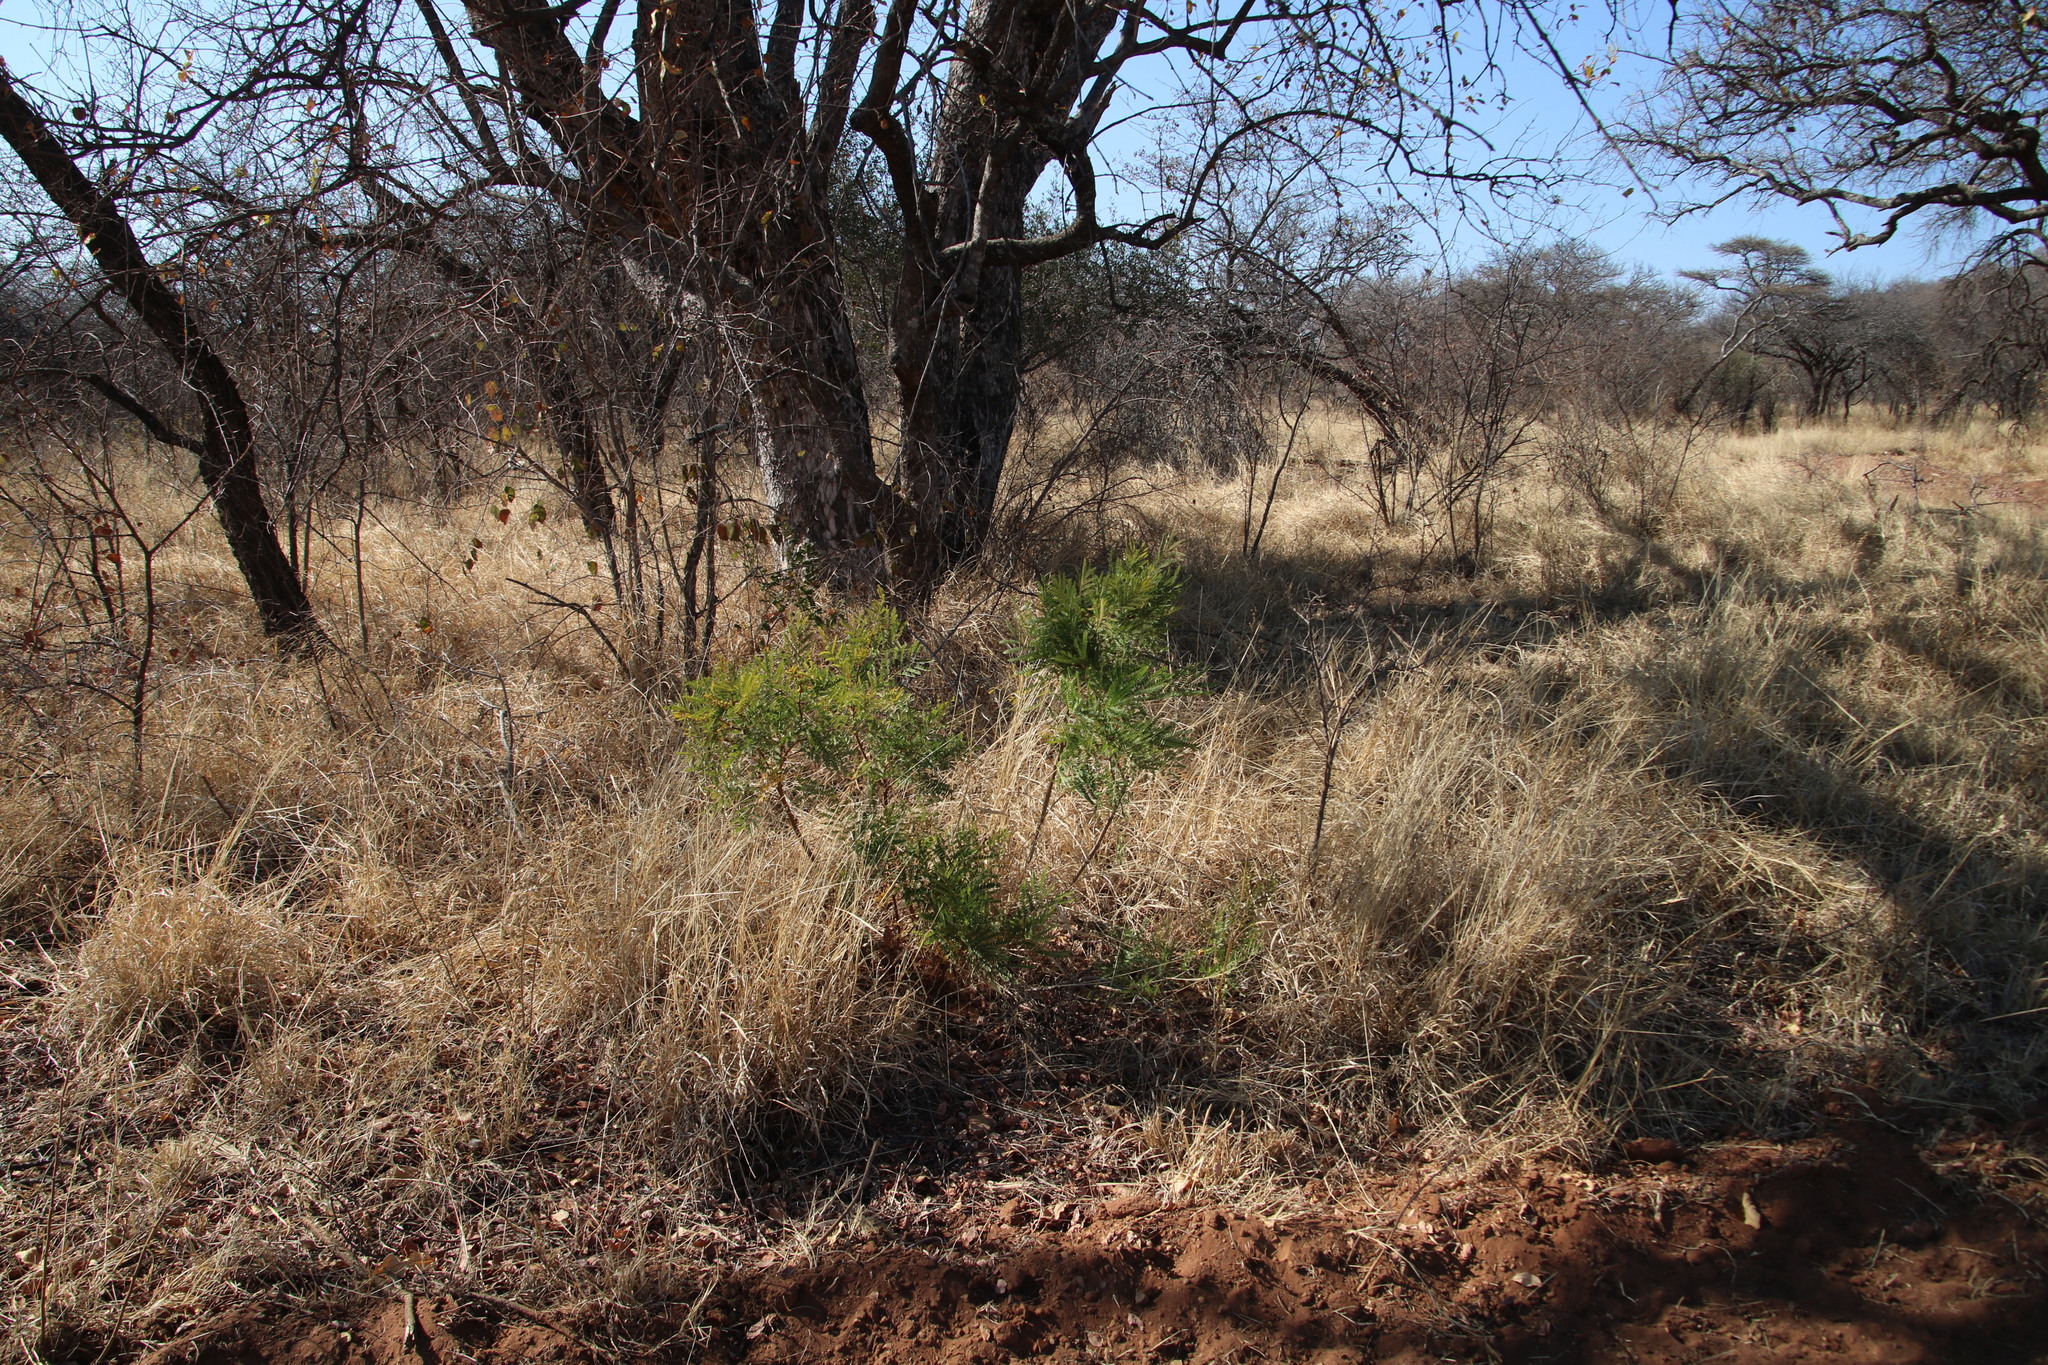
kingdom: Plantae
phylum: Tracheophyta
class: Magnoliopsida
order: Fabales
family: Fabaceae
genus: Peltophorum
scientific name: Peltophorum africanum
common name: African black wattle
